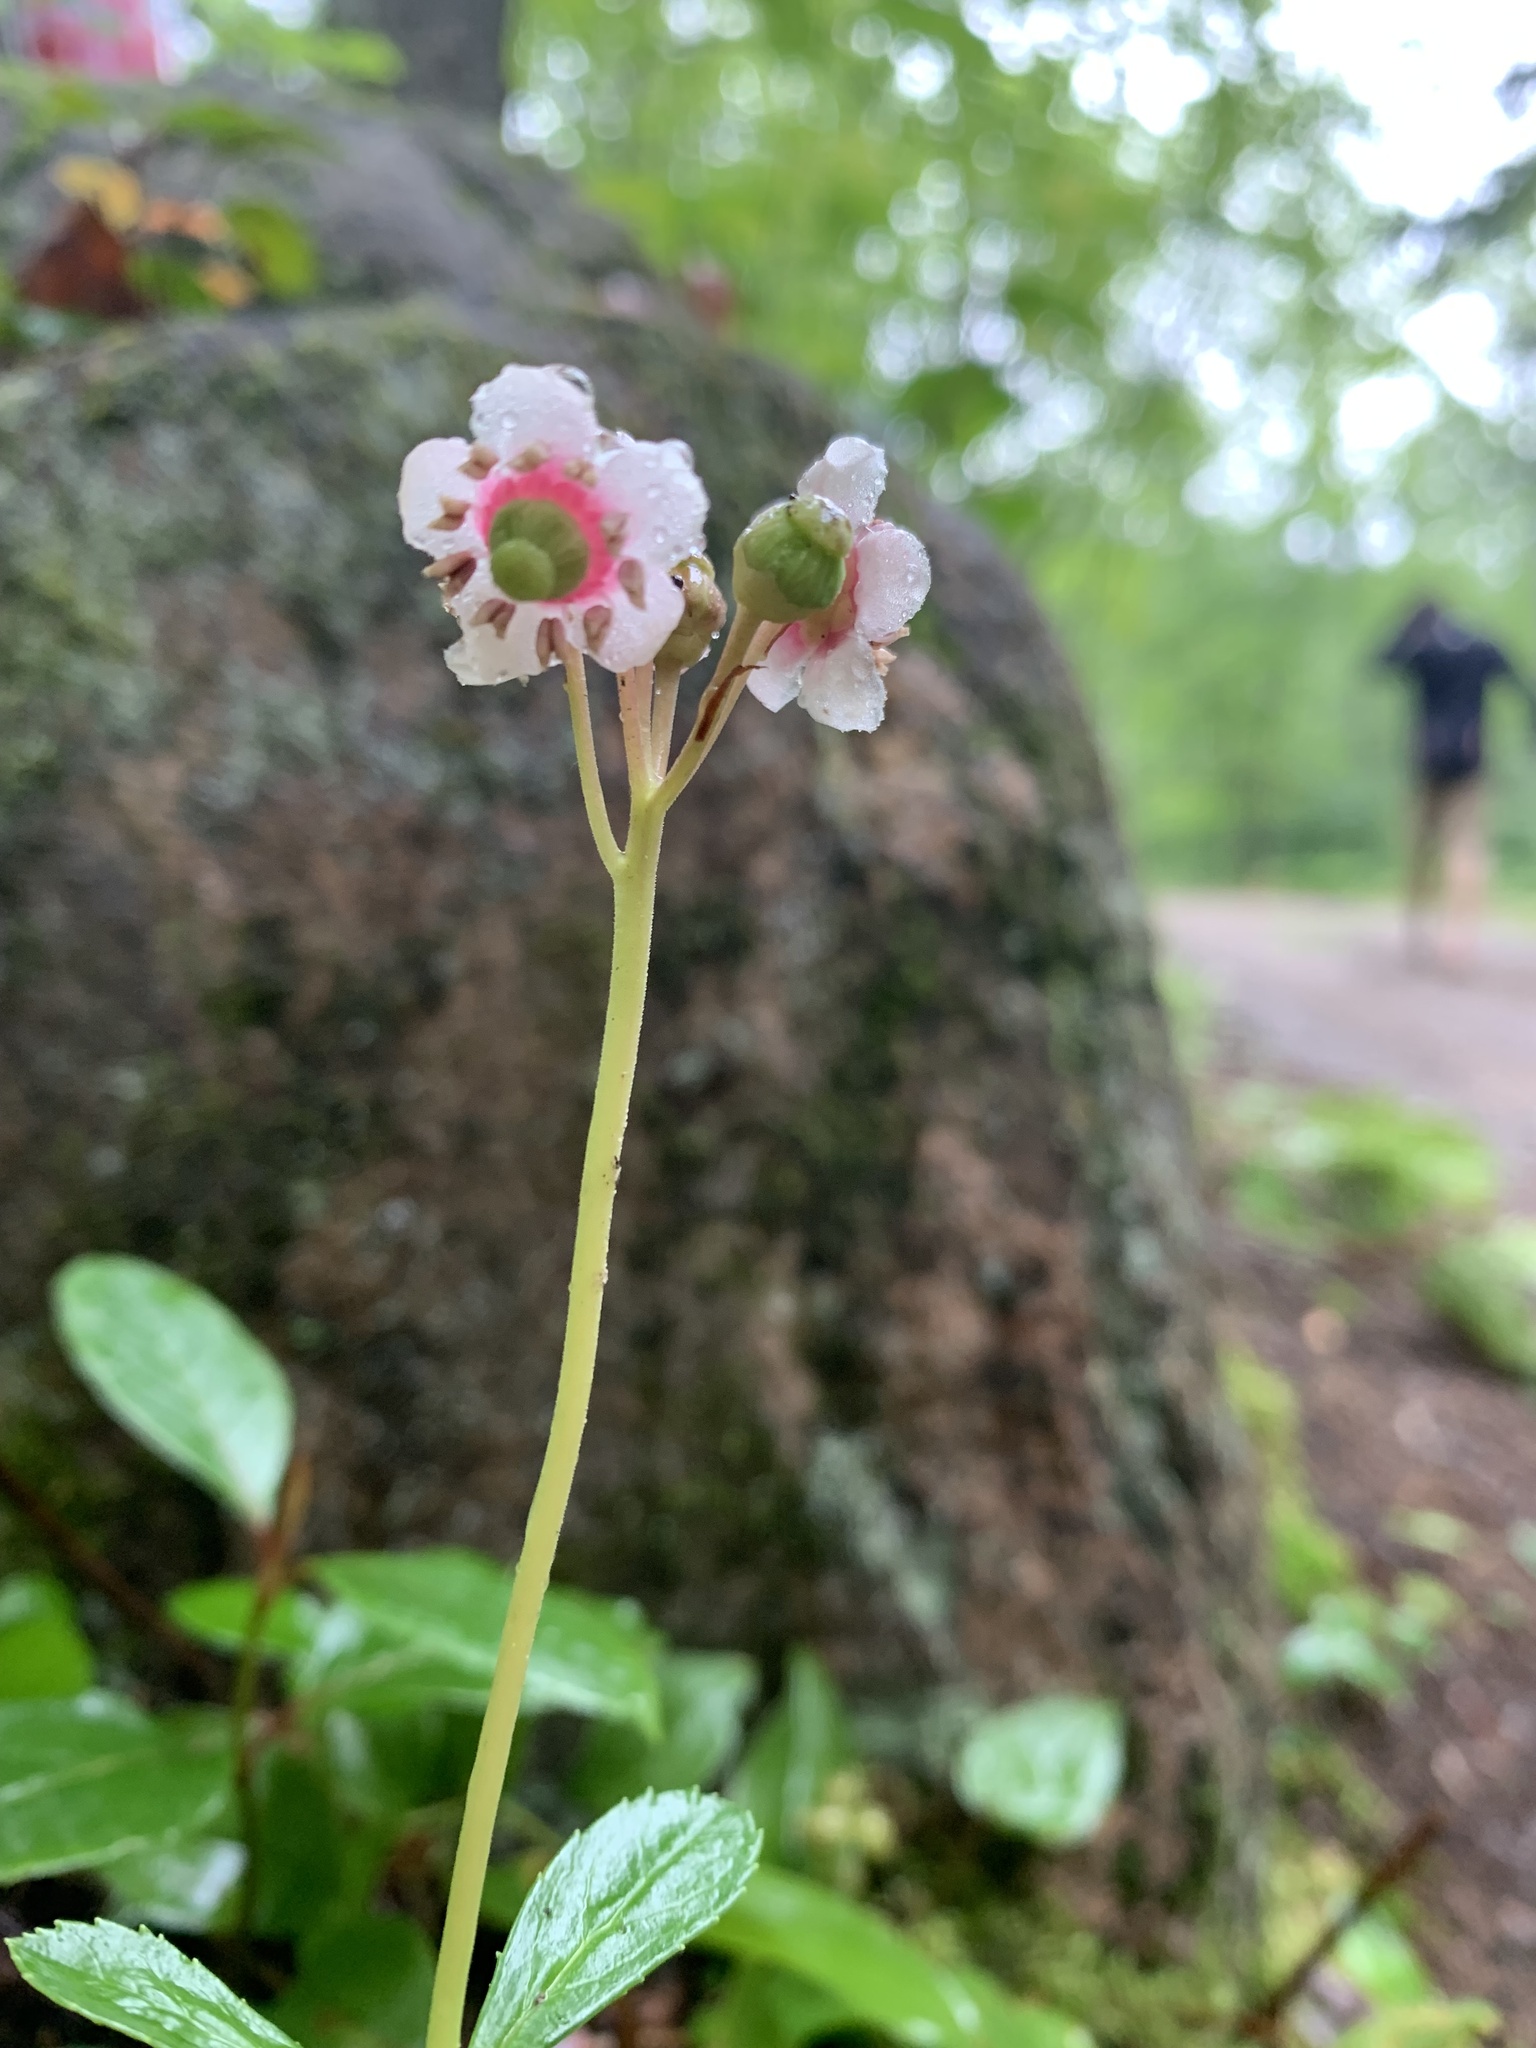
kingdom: Plantae
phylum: Tracheophyta
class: Magnoliopsida
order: Ericales
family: Ericaceae
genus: Chimaphila
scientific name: Chimaphila umbellata
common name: Pipsissewa
